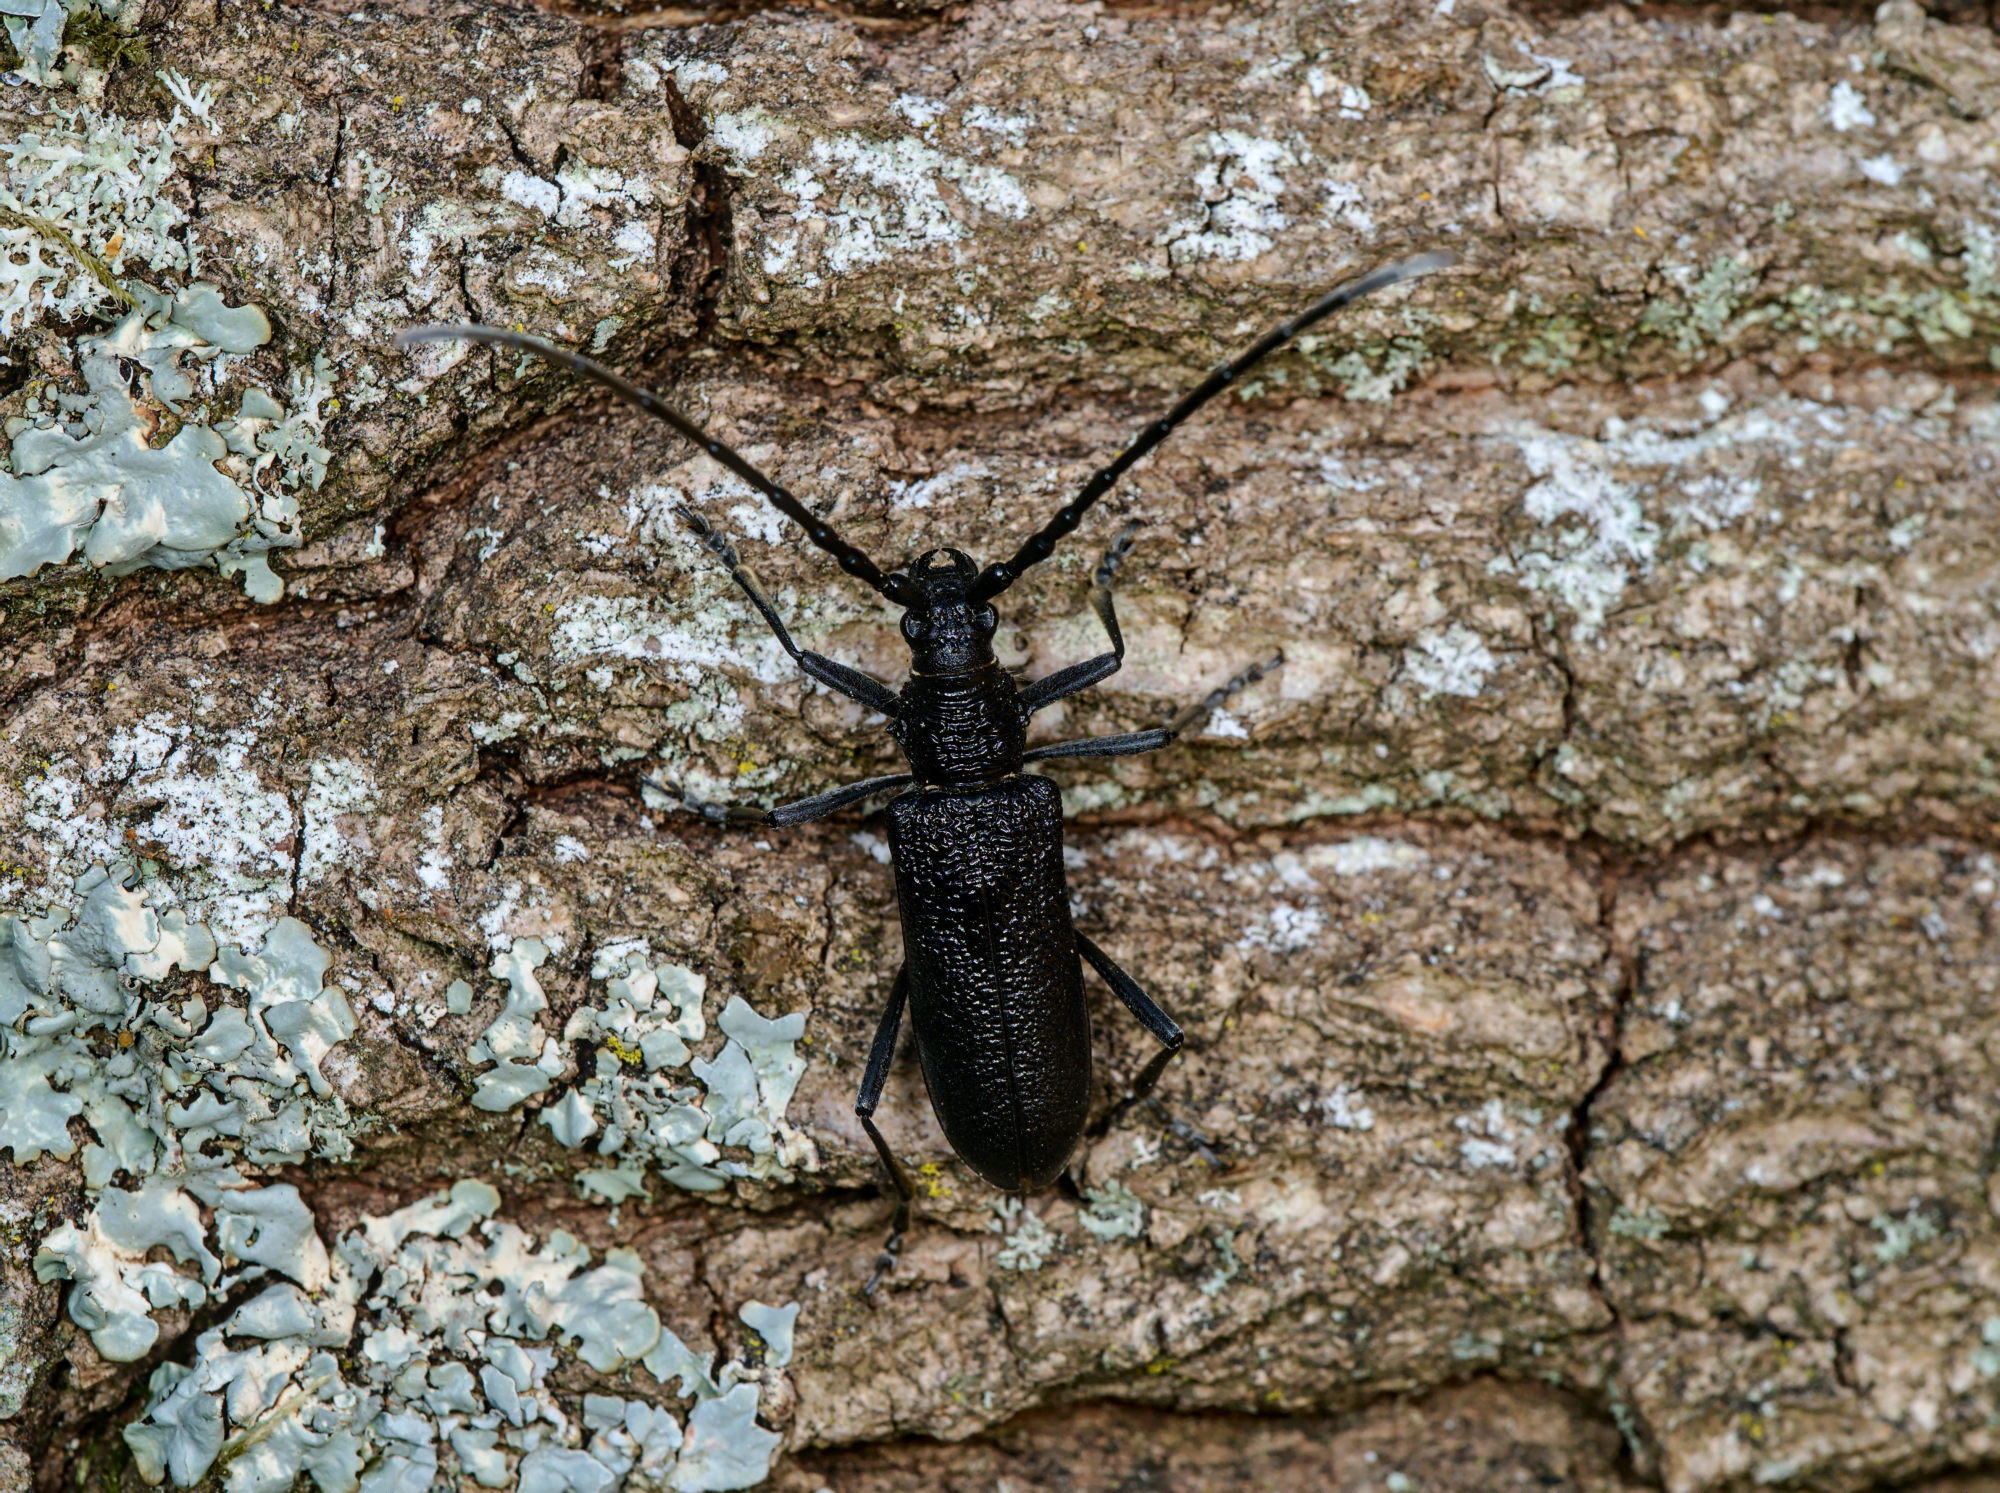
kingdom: Animalia
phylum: Arthropoda
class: Insecta
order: Coleoptera
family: Cerambycidae
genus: Cerambyx
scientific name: Cerambyx scopolii
